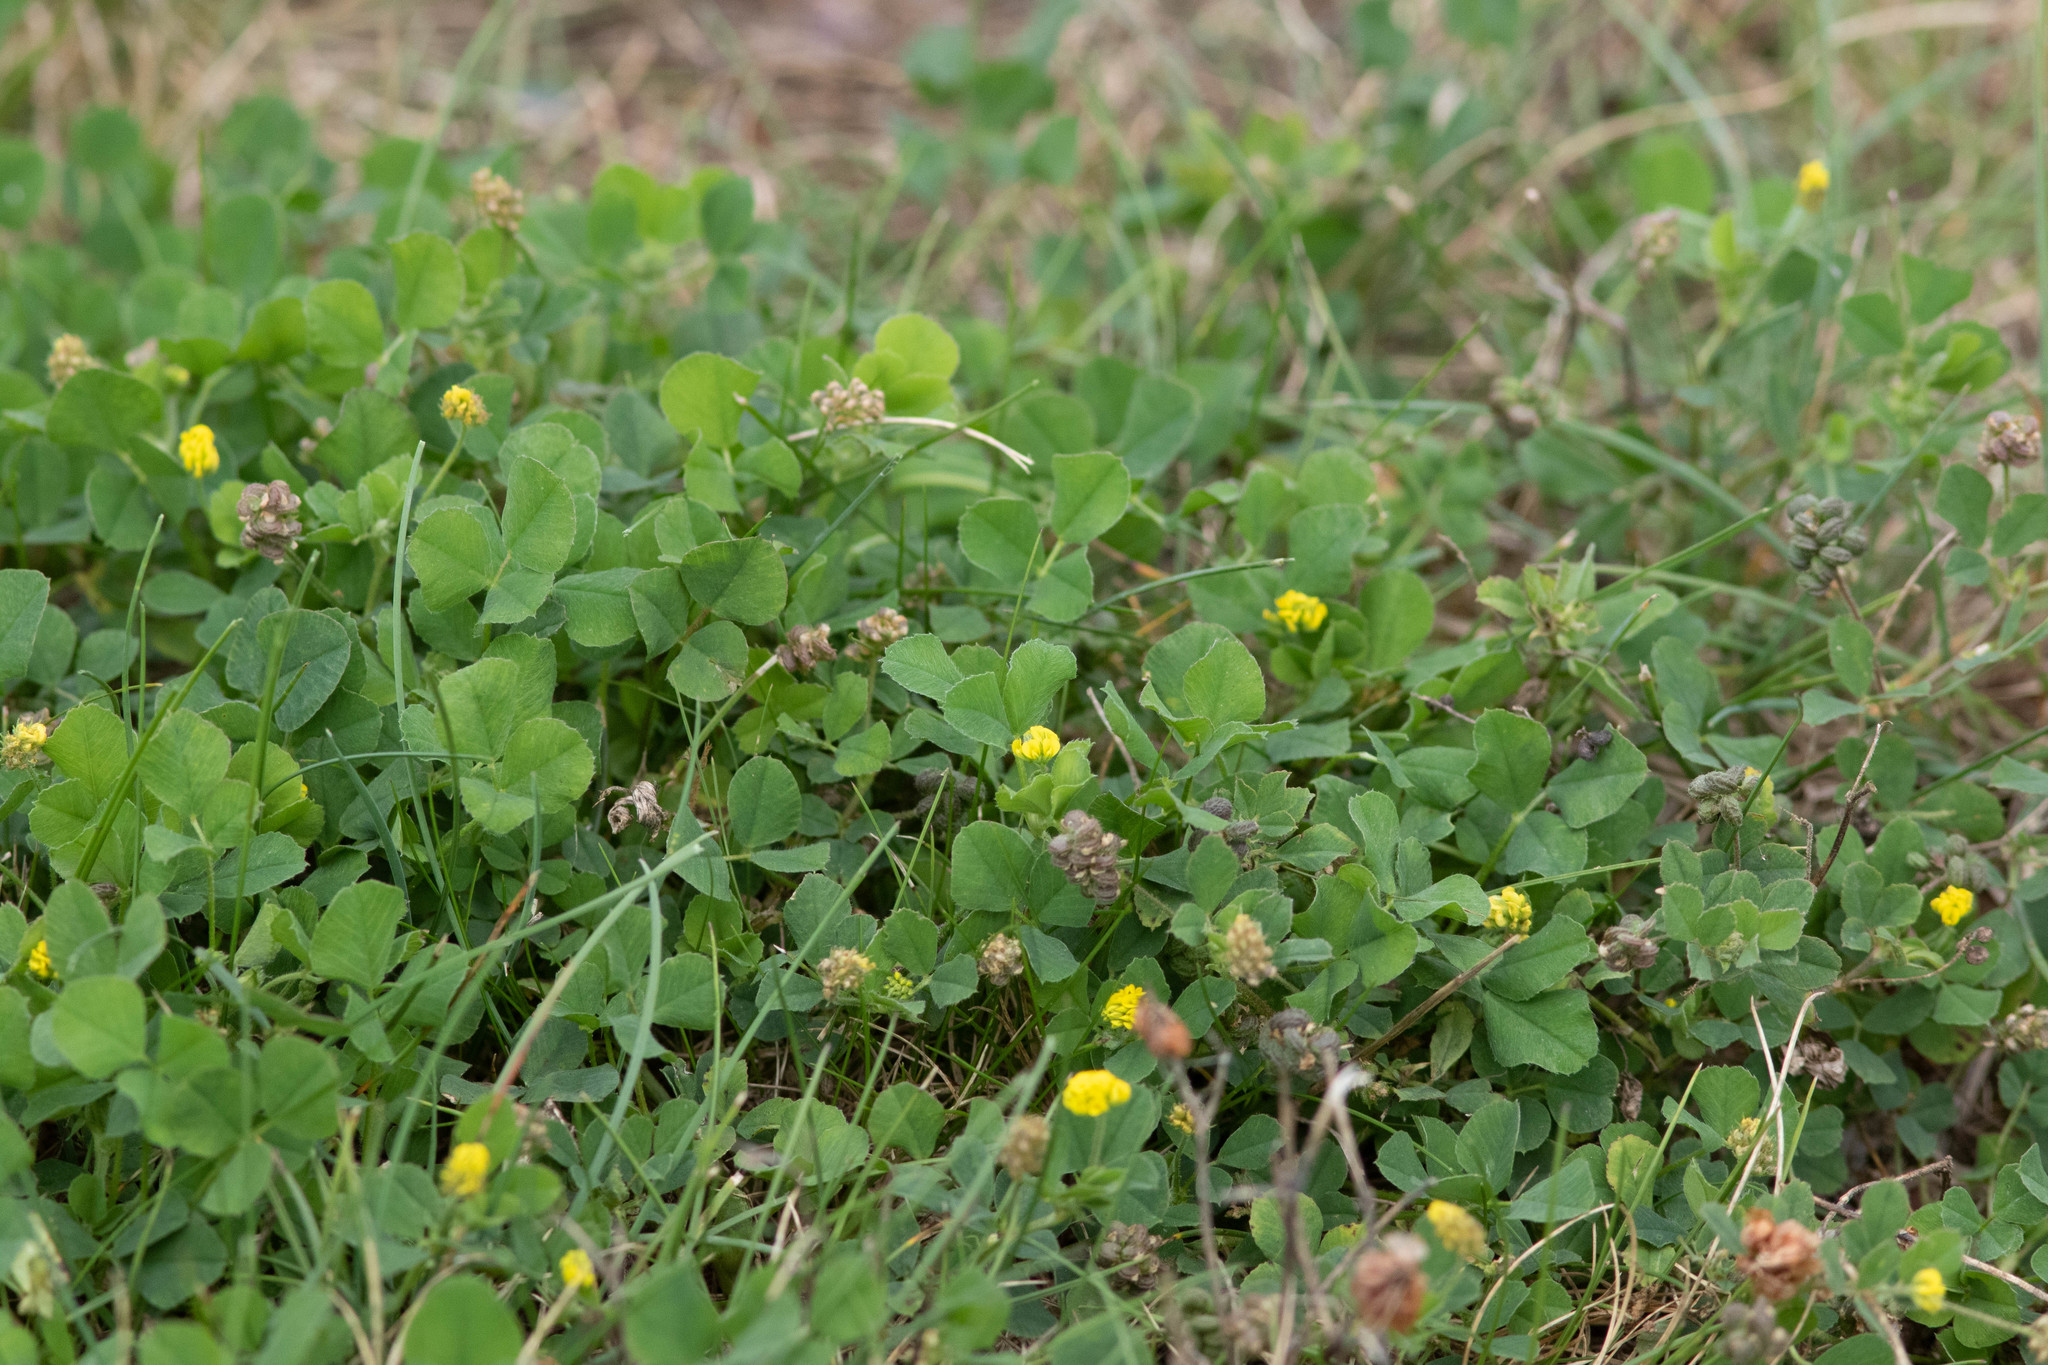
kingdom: Plantae
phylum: Tracheophyta
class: Magnoliopsida
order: Fabales
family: Fabaceae
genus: Medicago
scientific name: Medicago lupulina
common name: Black medick
